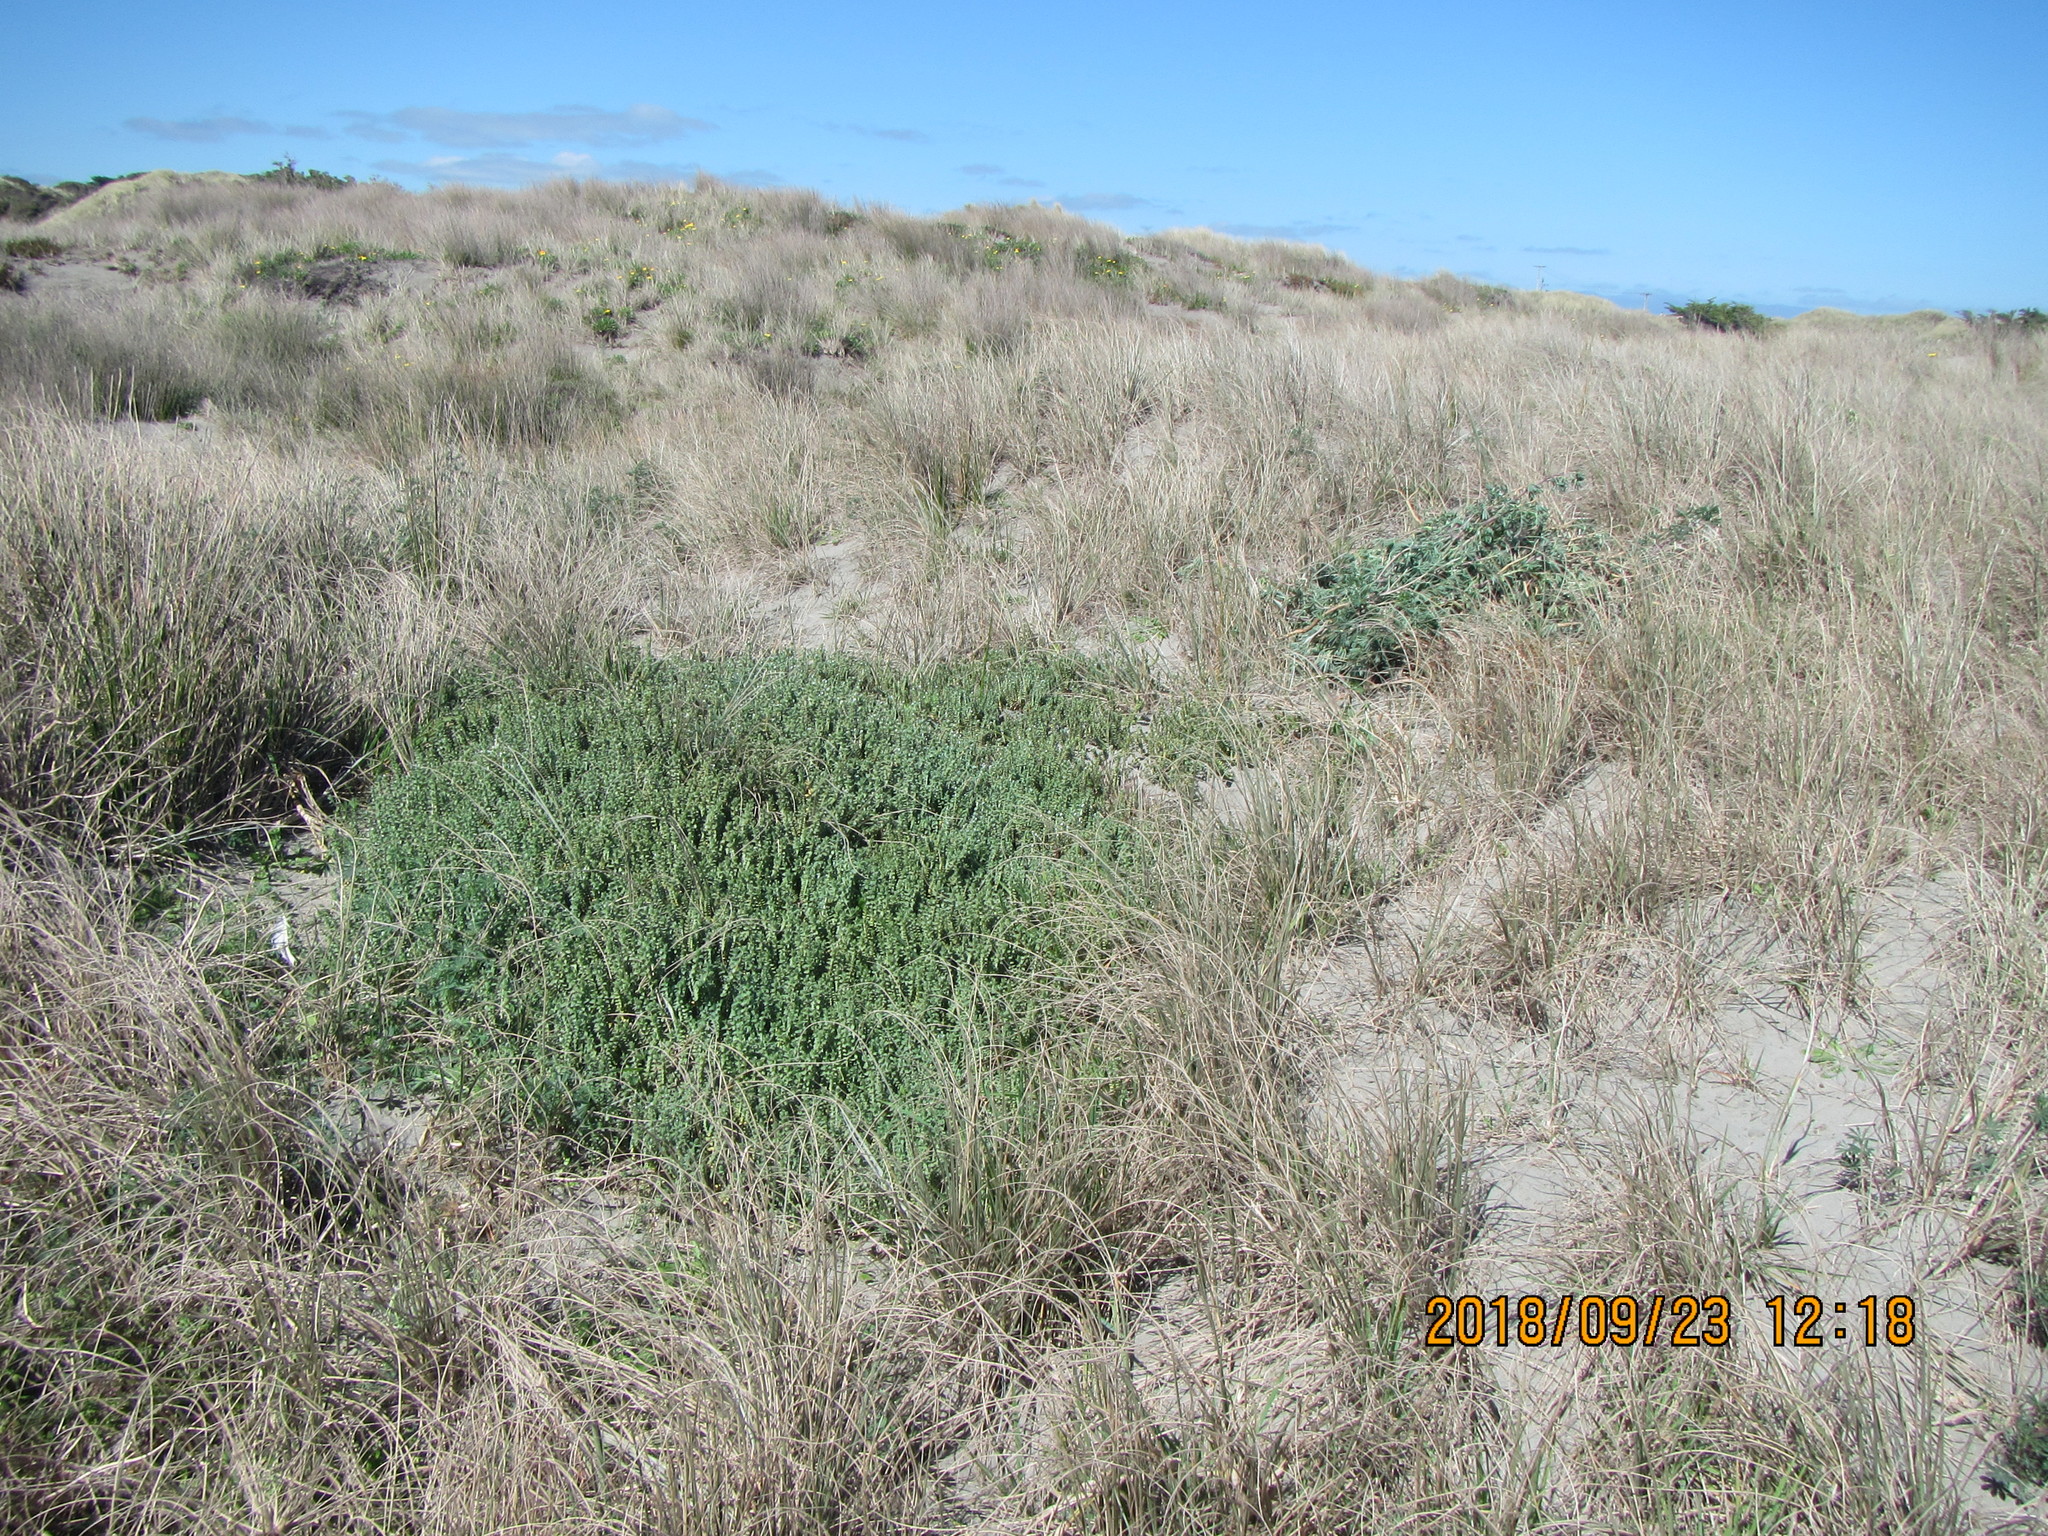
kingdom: Plantae
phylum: Tracheophyta
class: Magnoliopsida
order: Fabales
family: Fabaceae
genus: Lupinus
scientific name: Lupinus arboreus
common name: Yellow bush lupine
